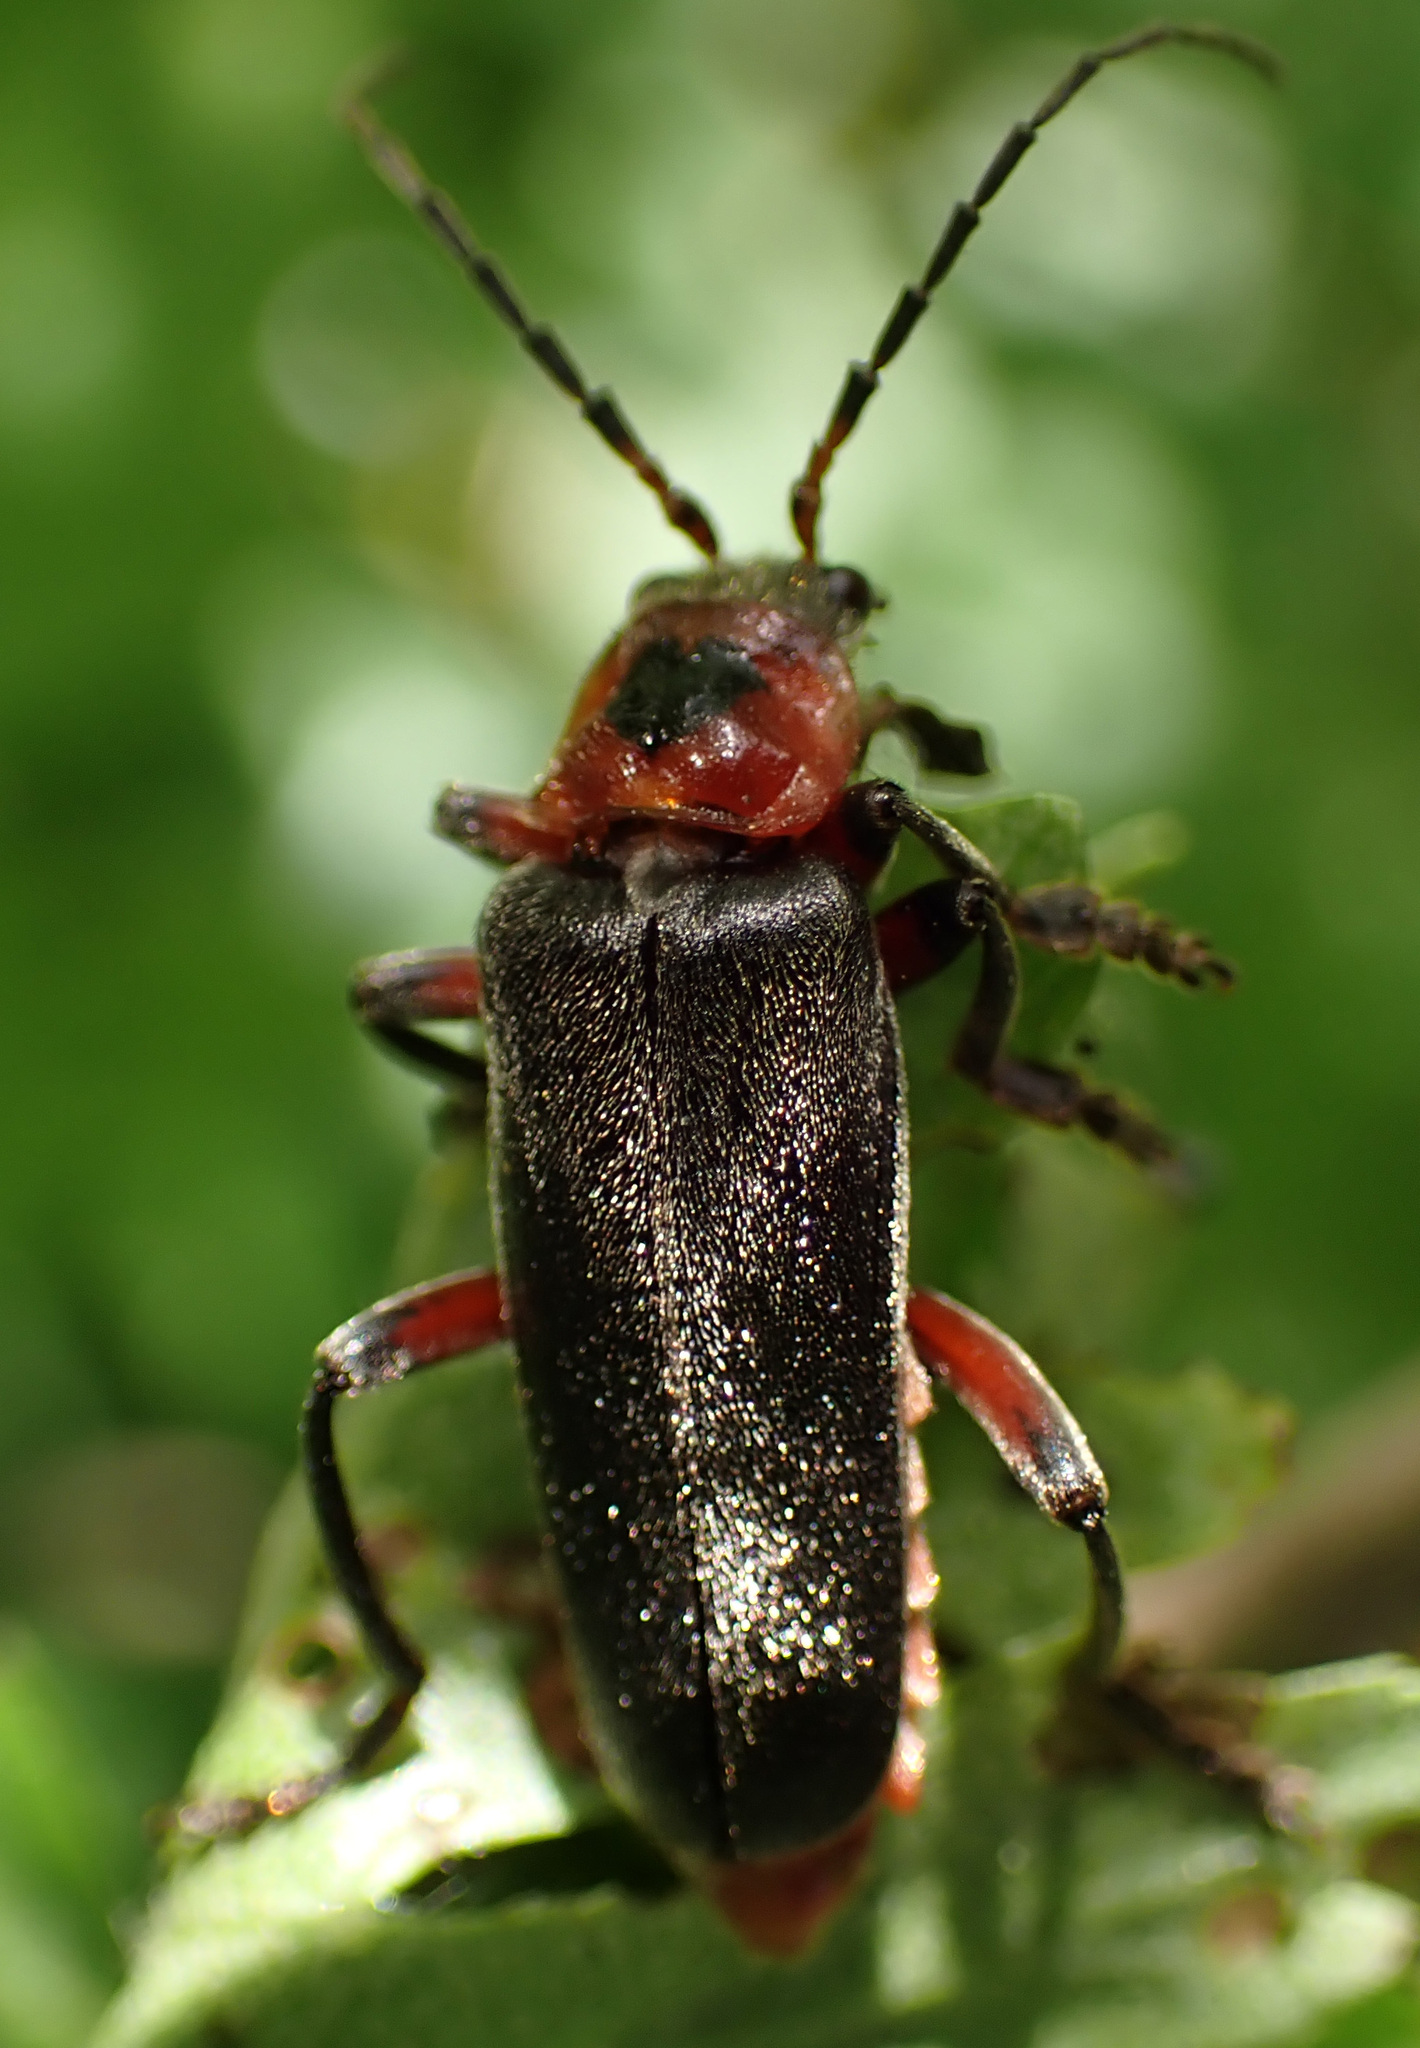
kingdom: Animalia
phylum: Arthropoda
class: Insecta
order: Coleoptera
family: Cantharidae
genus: Cantharis
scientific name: Cantharis rustica
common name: Soldier beetle
